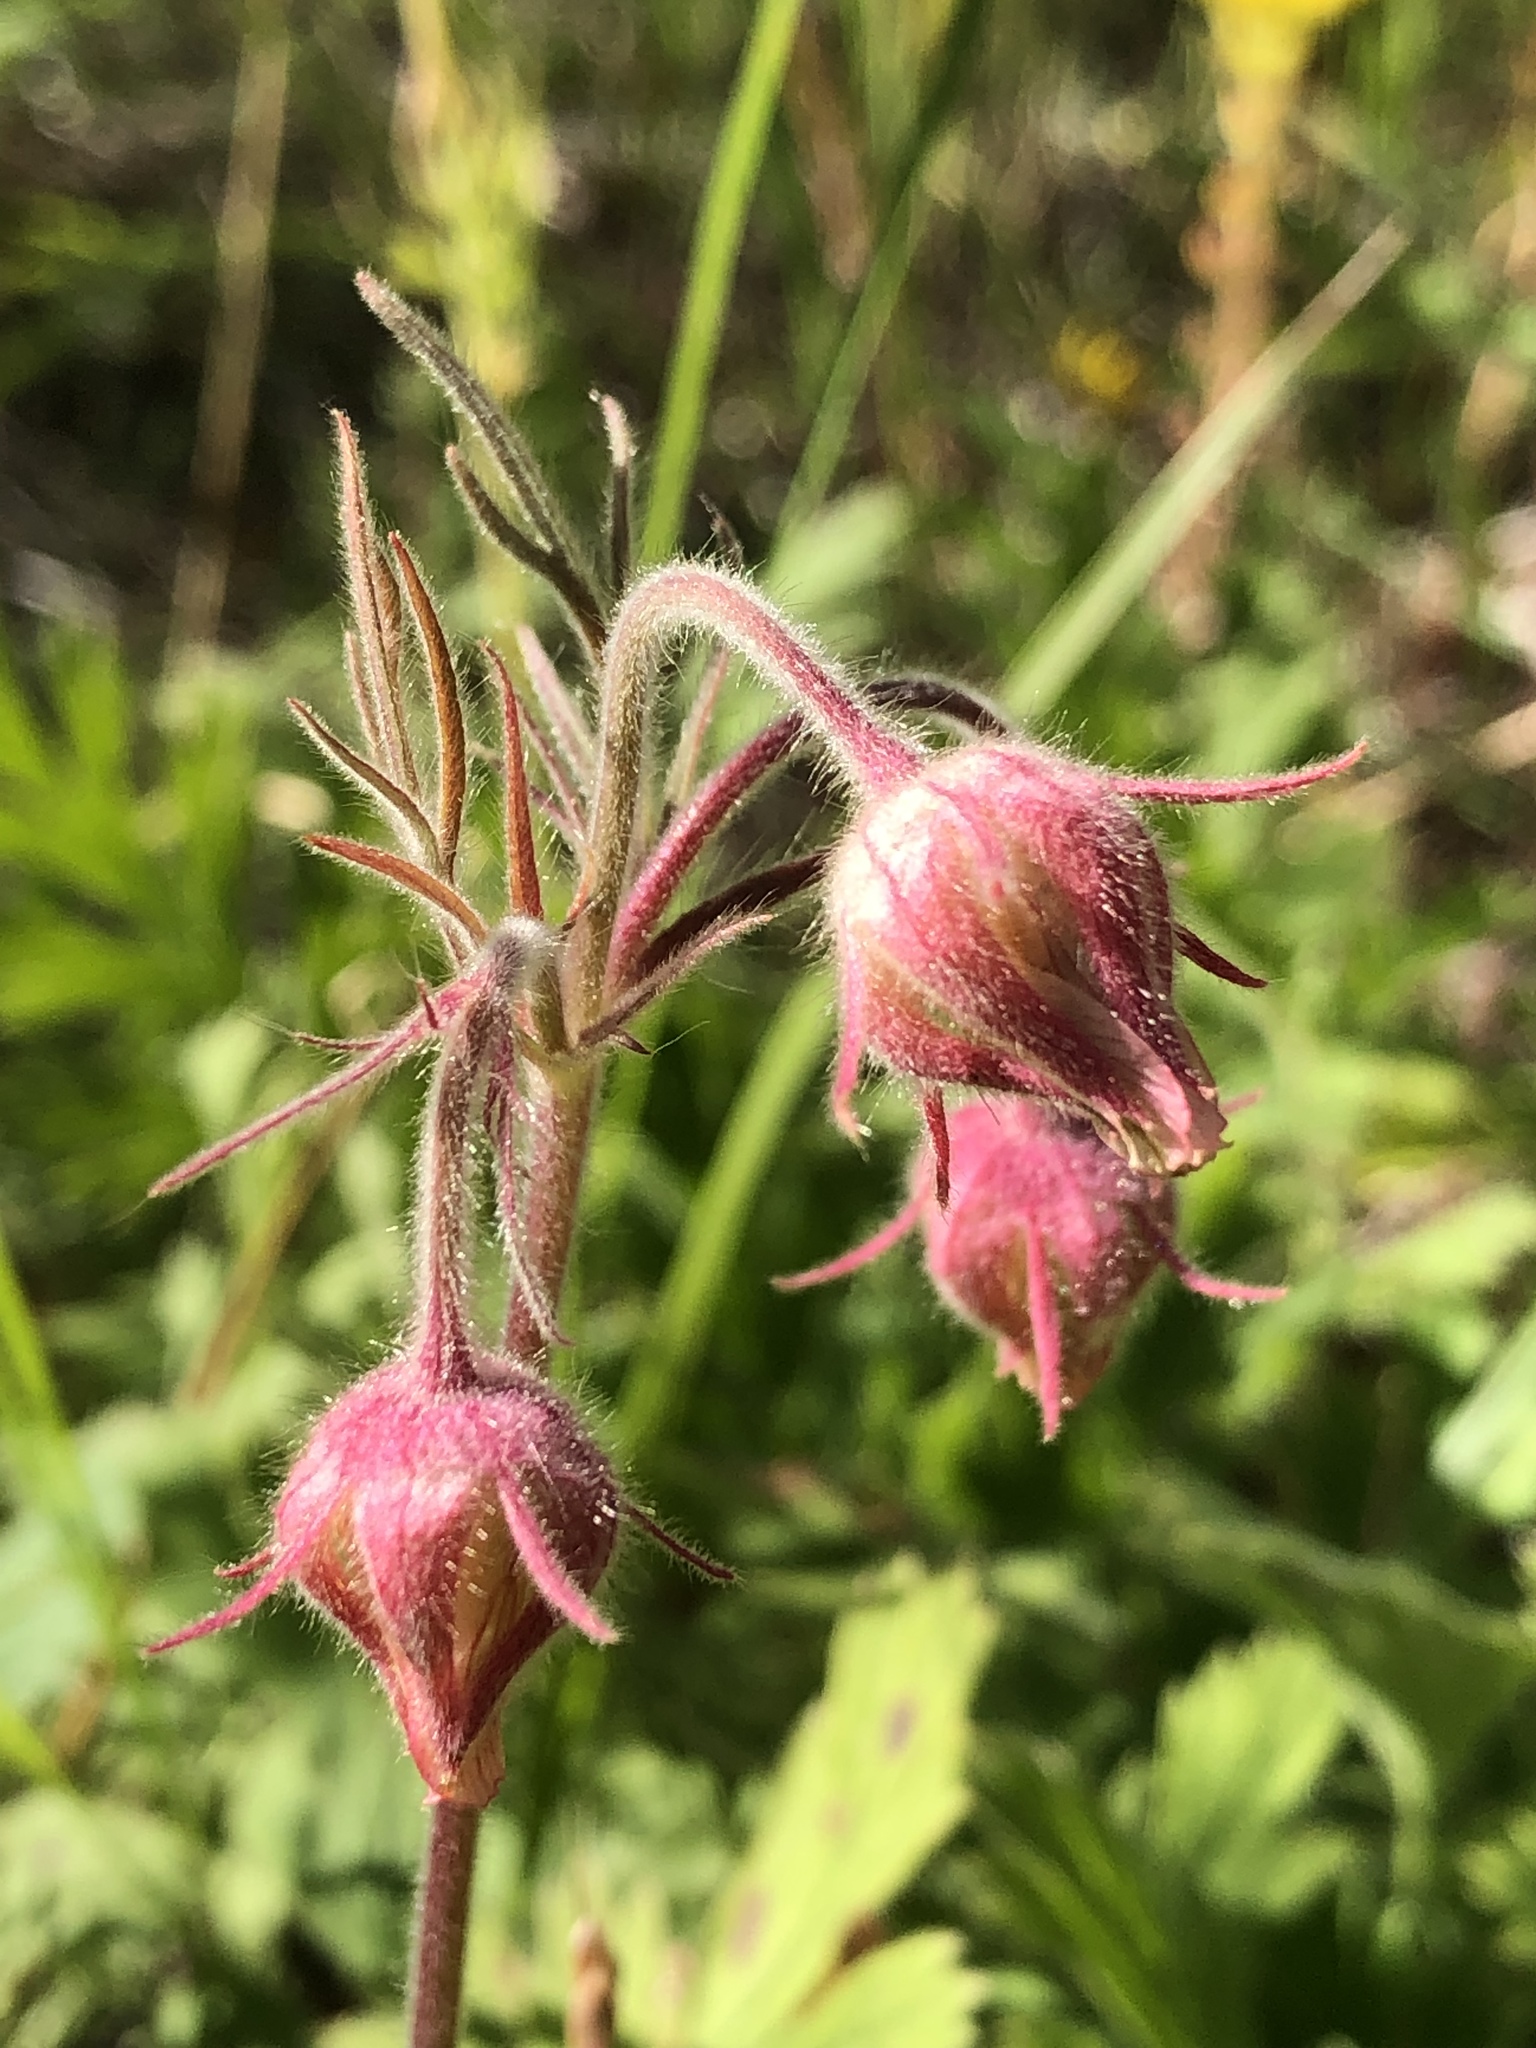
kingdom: Plantae
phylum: Tracheophyta
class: Magnoliopsida
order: Rosales
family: Rosaceae
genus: Geum
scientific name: Geum triflorum
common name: Old man's whiskers
